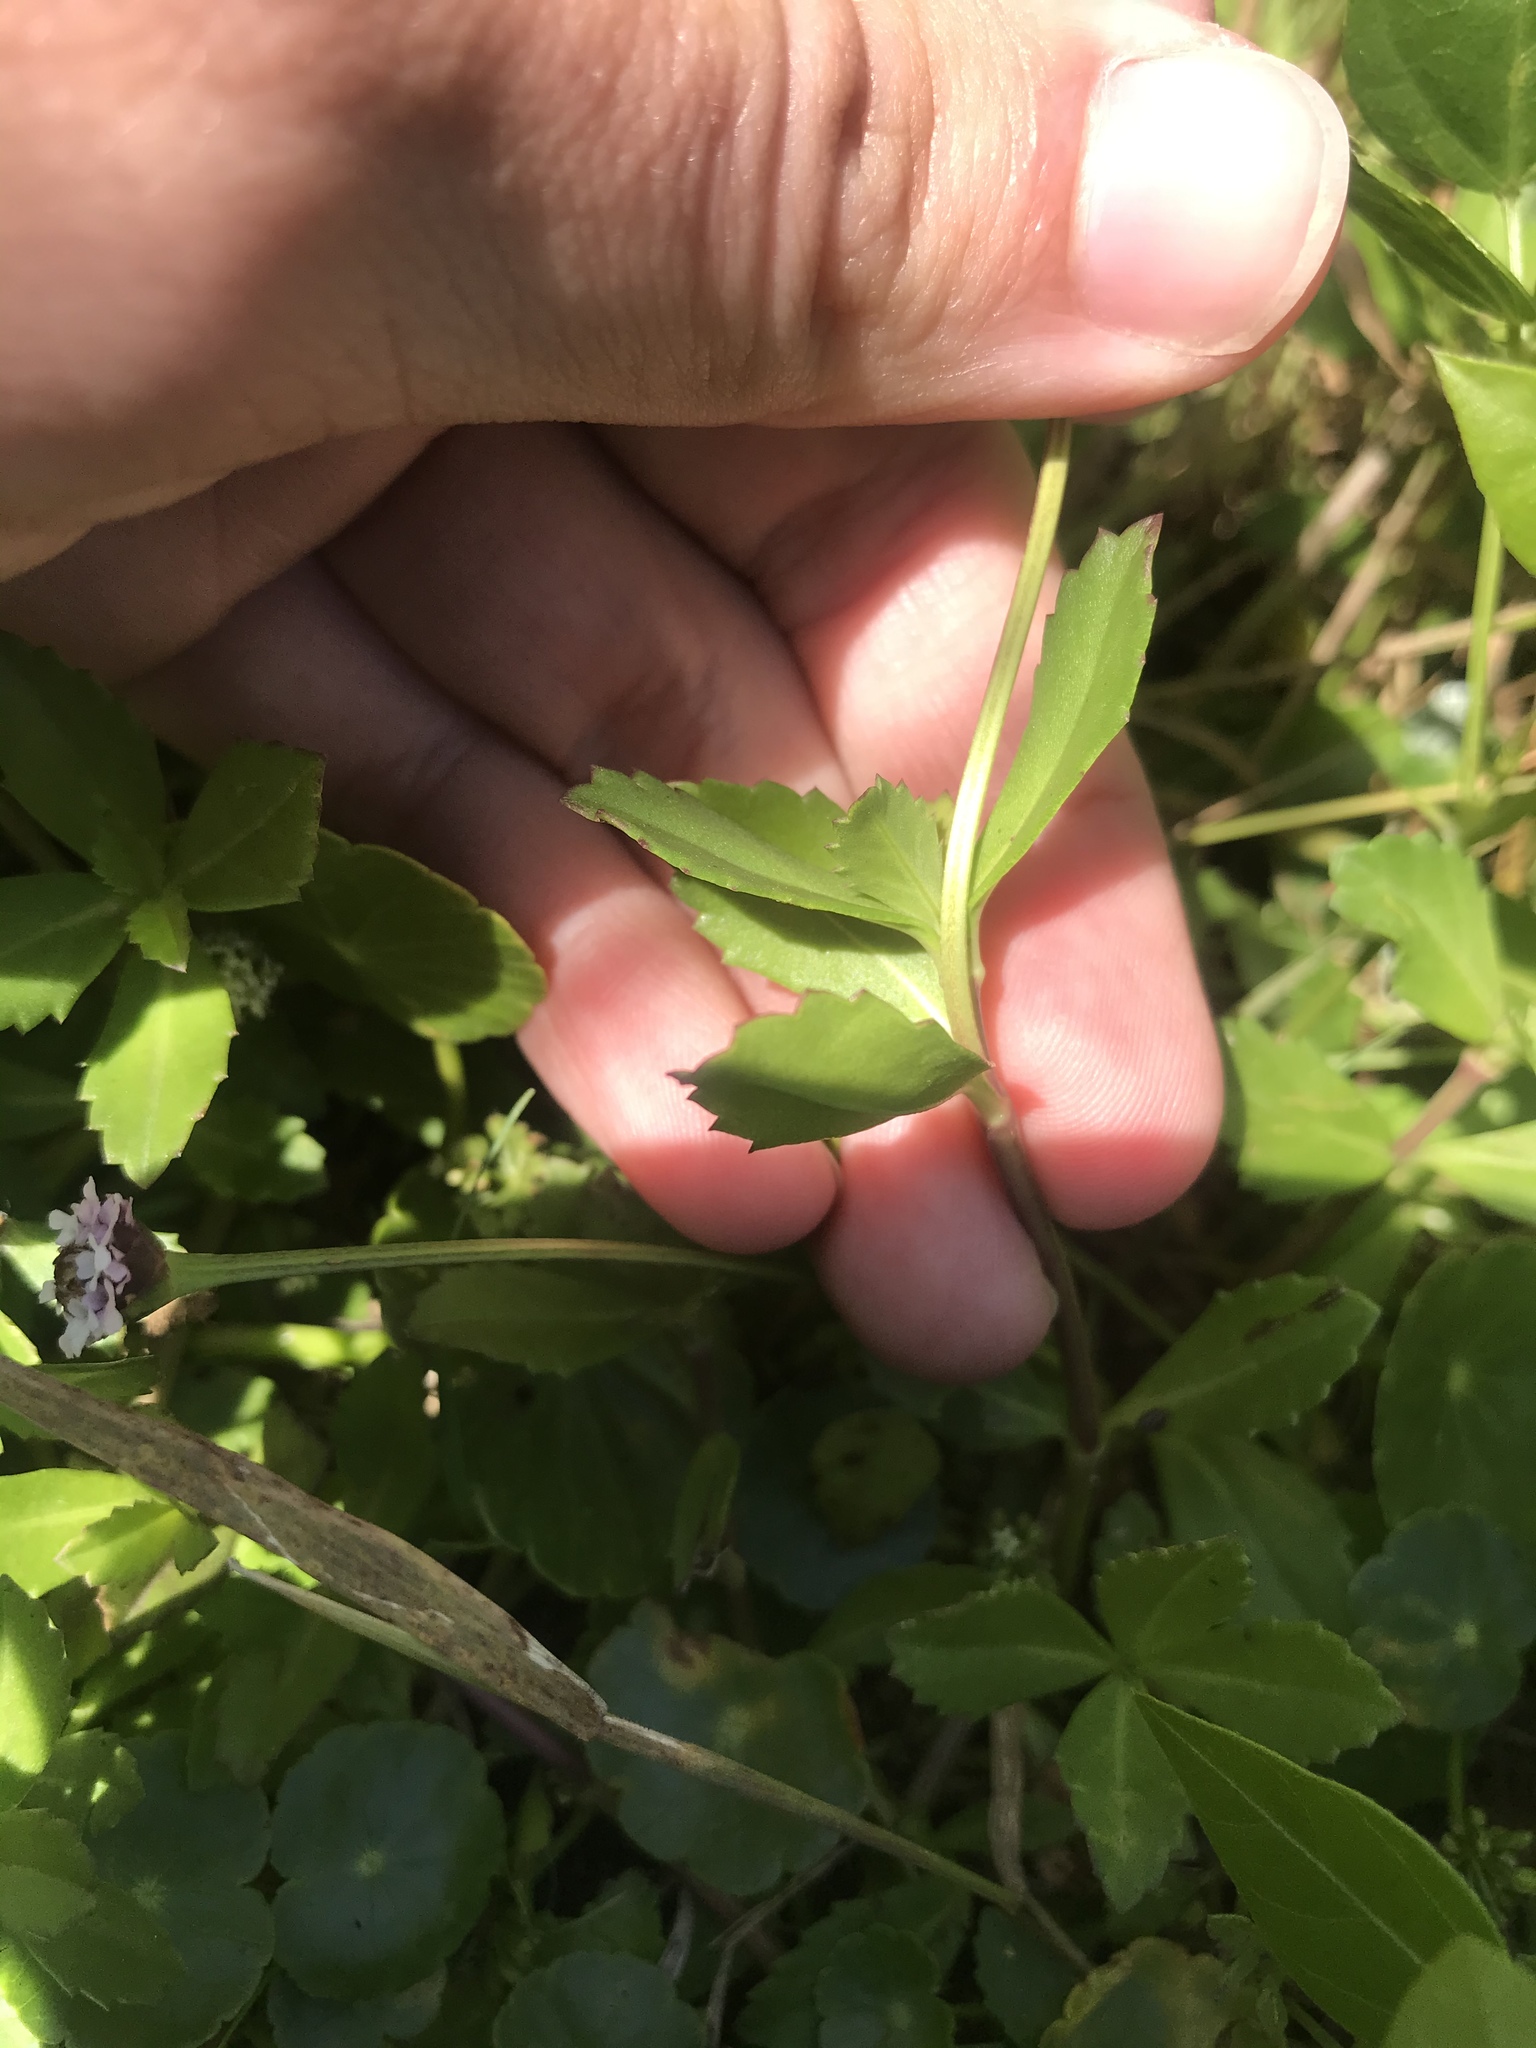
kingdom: Plantae
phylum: Tracheophyta
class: Magnoliopsida
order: Lamiales
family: Verbenaceae
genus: Phyla
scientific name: Phyla nodiflora
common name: Frogfruit
